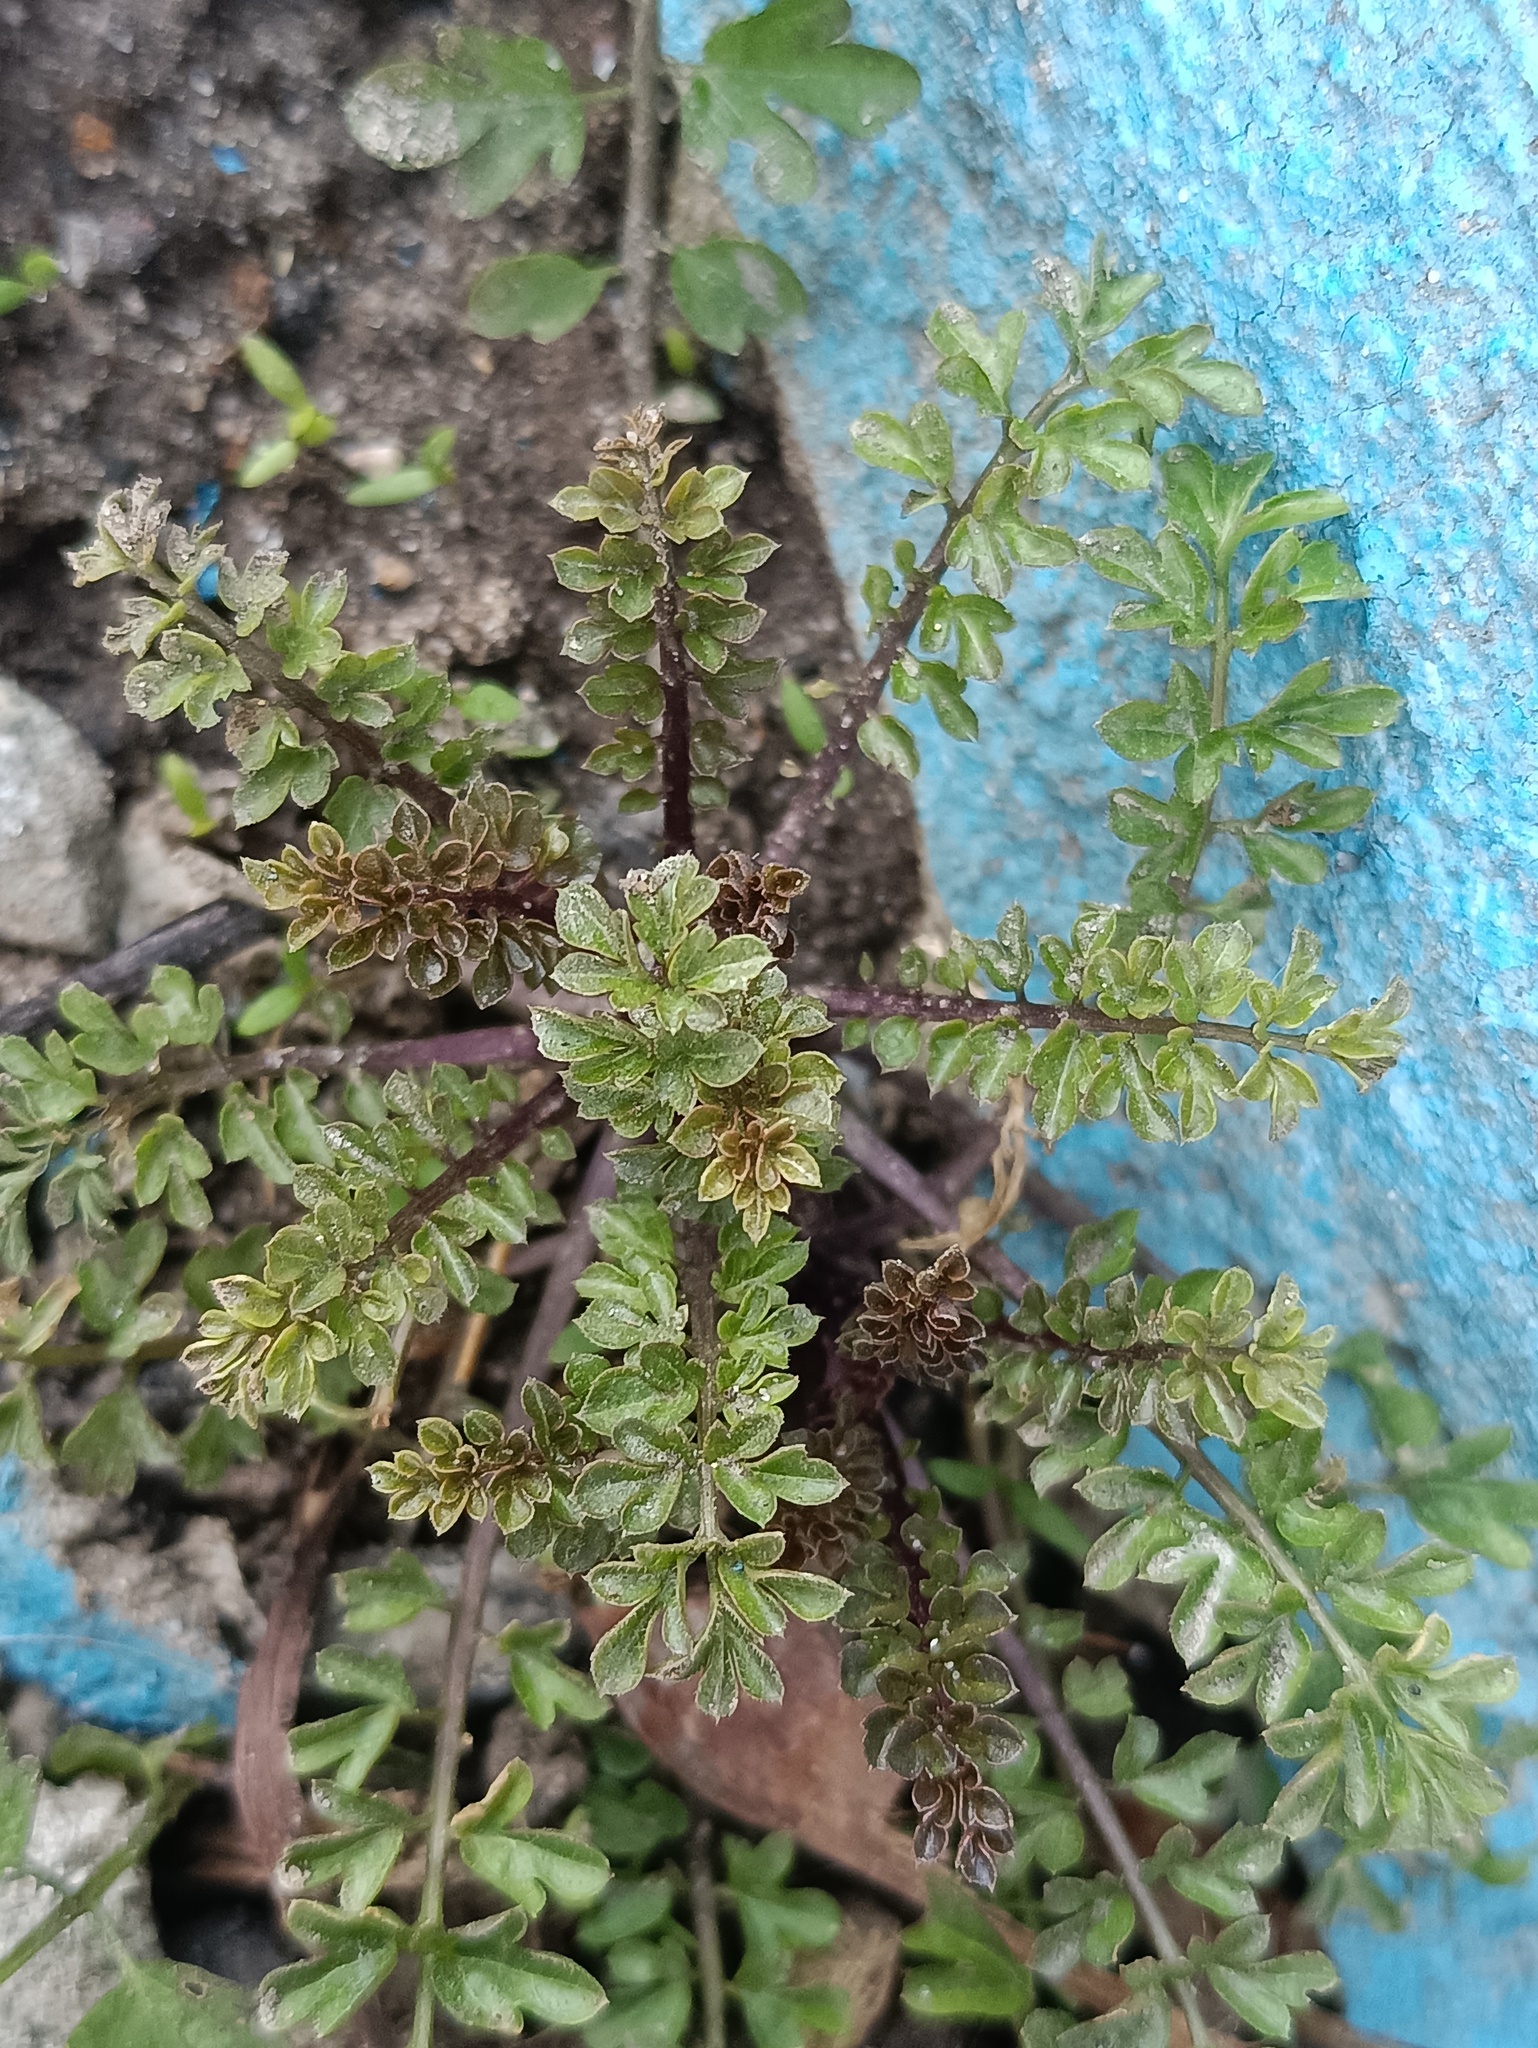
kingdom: Plantae
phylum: Tracheophyta
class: Magnoliopsida
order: Brassicales
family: Brassicaceae
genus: Cardamine
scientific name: Cardamine impatiens
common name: Narrow-leaved bitter-cress
